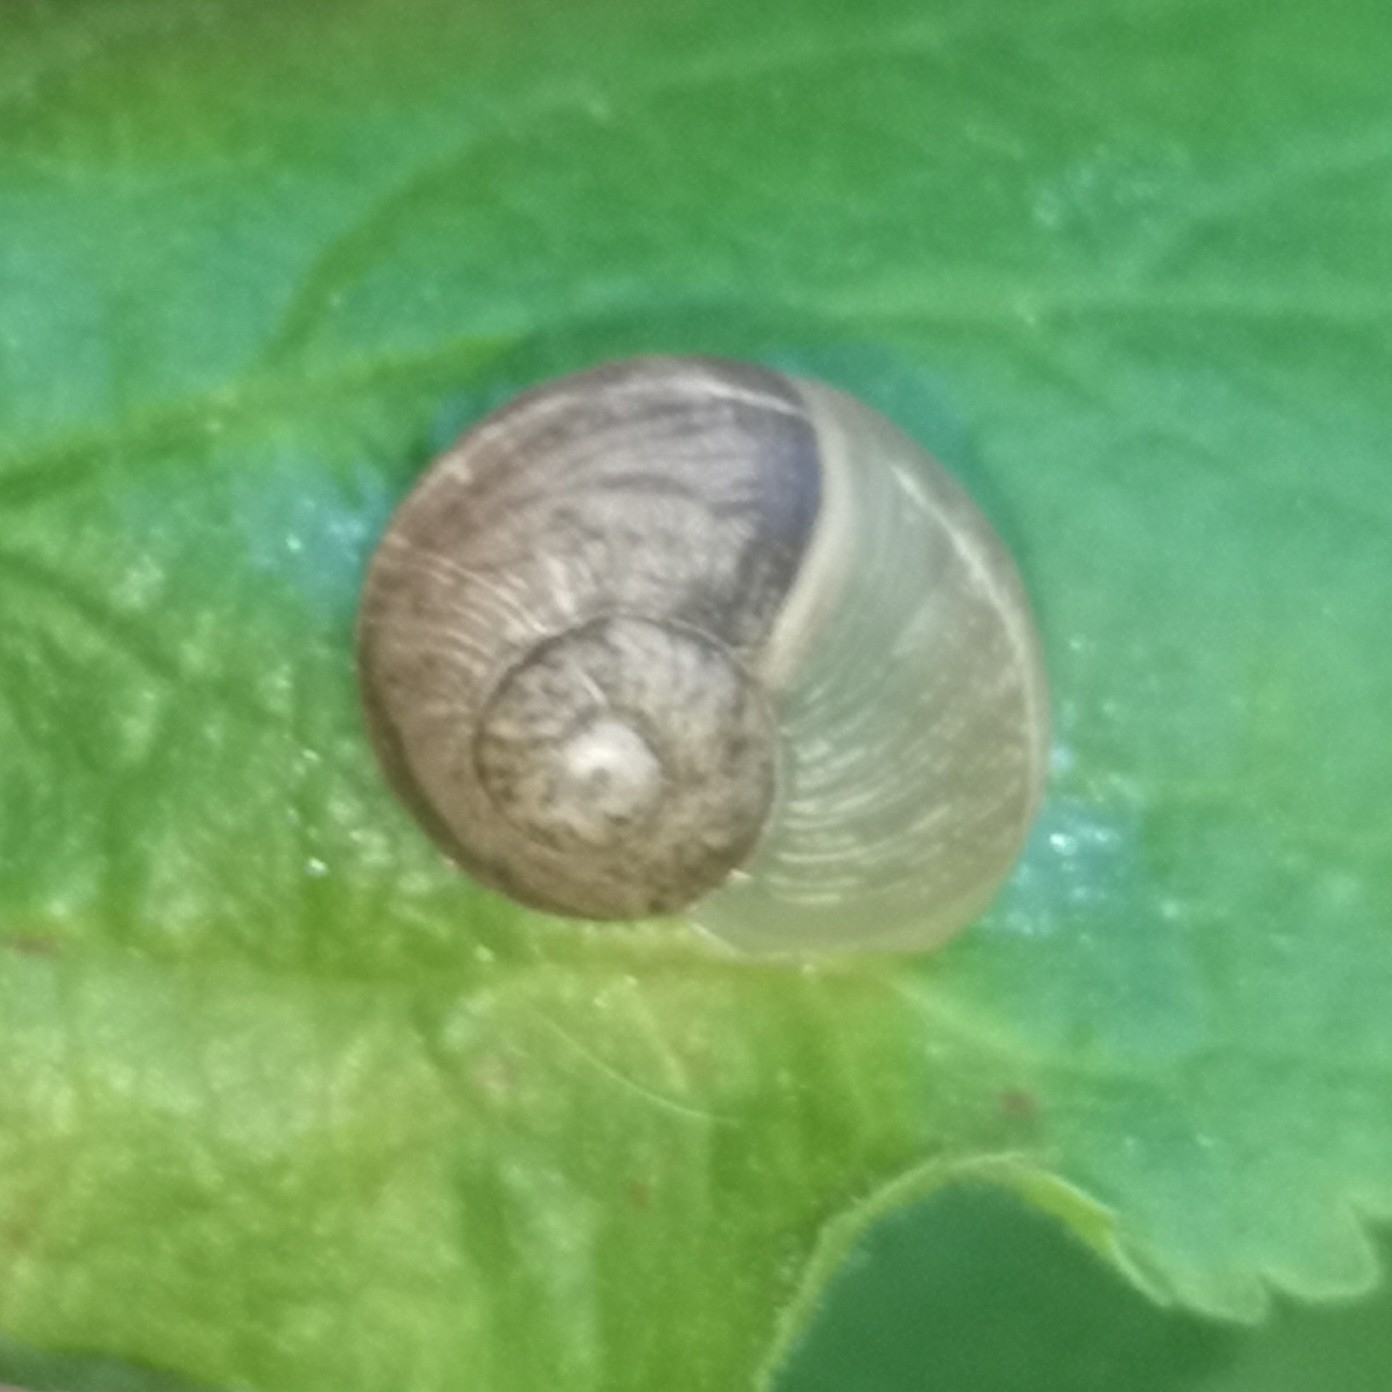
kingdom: Animalia
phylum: Mollusca
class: Gastropoda
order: Stylommatophora
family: Helicidae
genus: Cornu
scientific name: Cornu aspersum
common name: Brown garden snail
